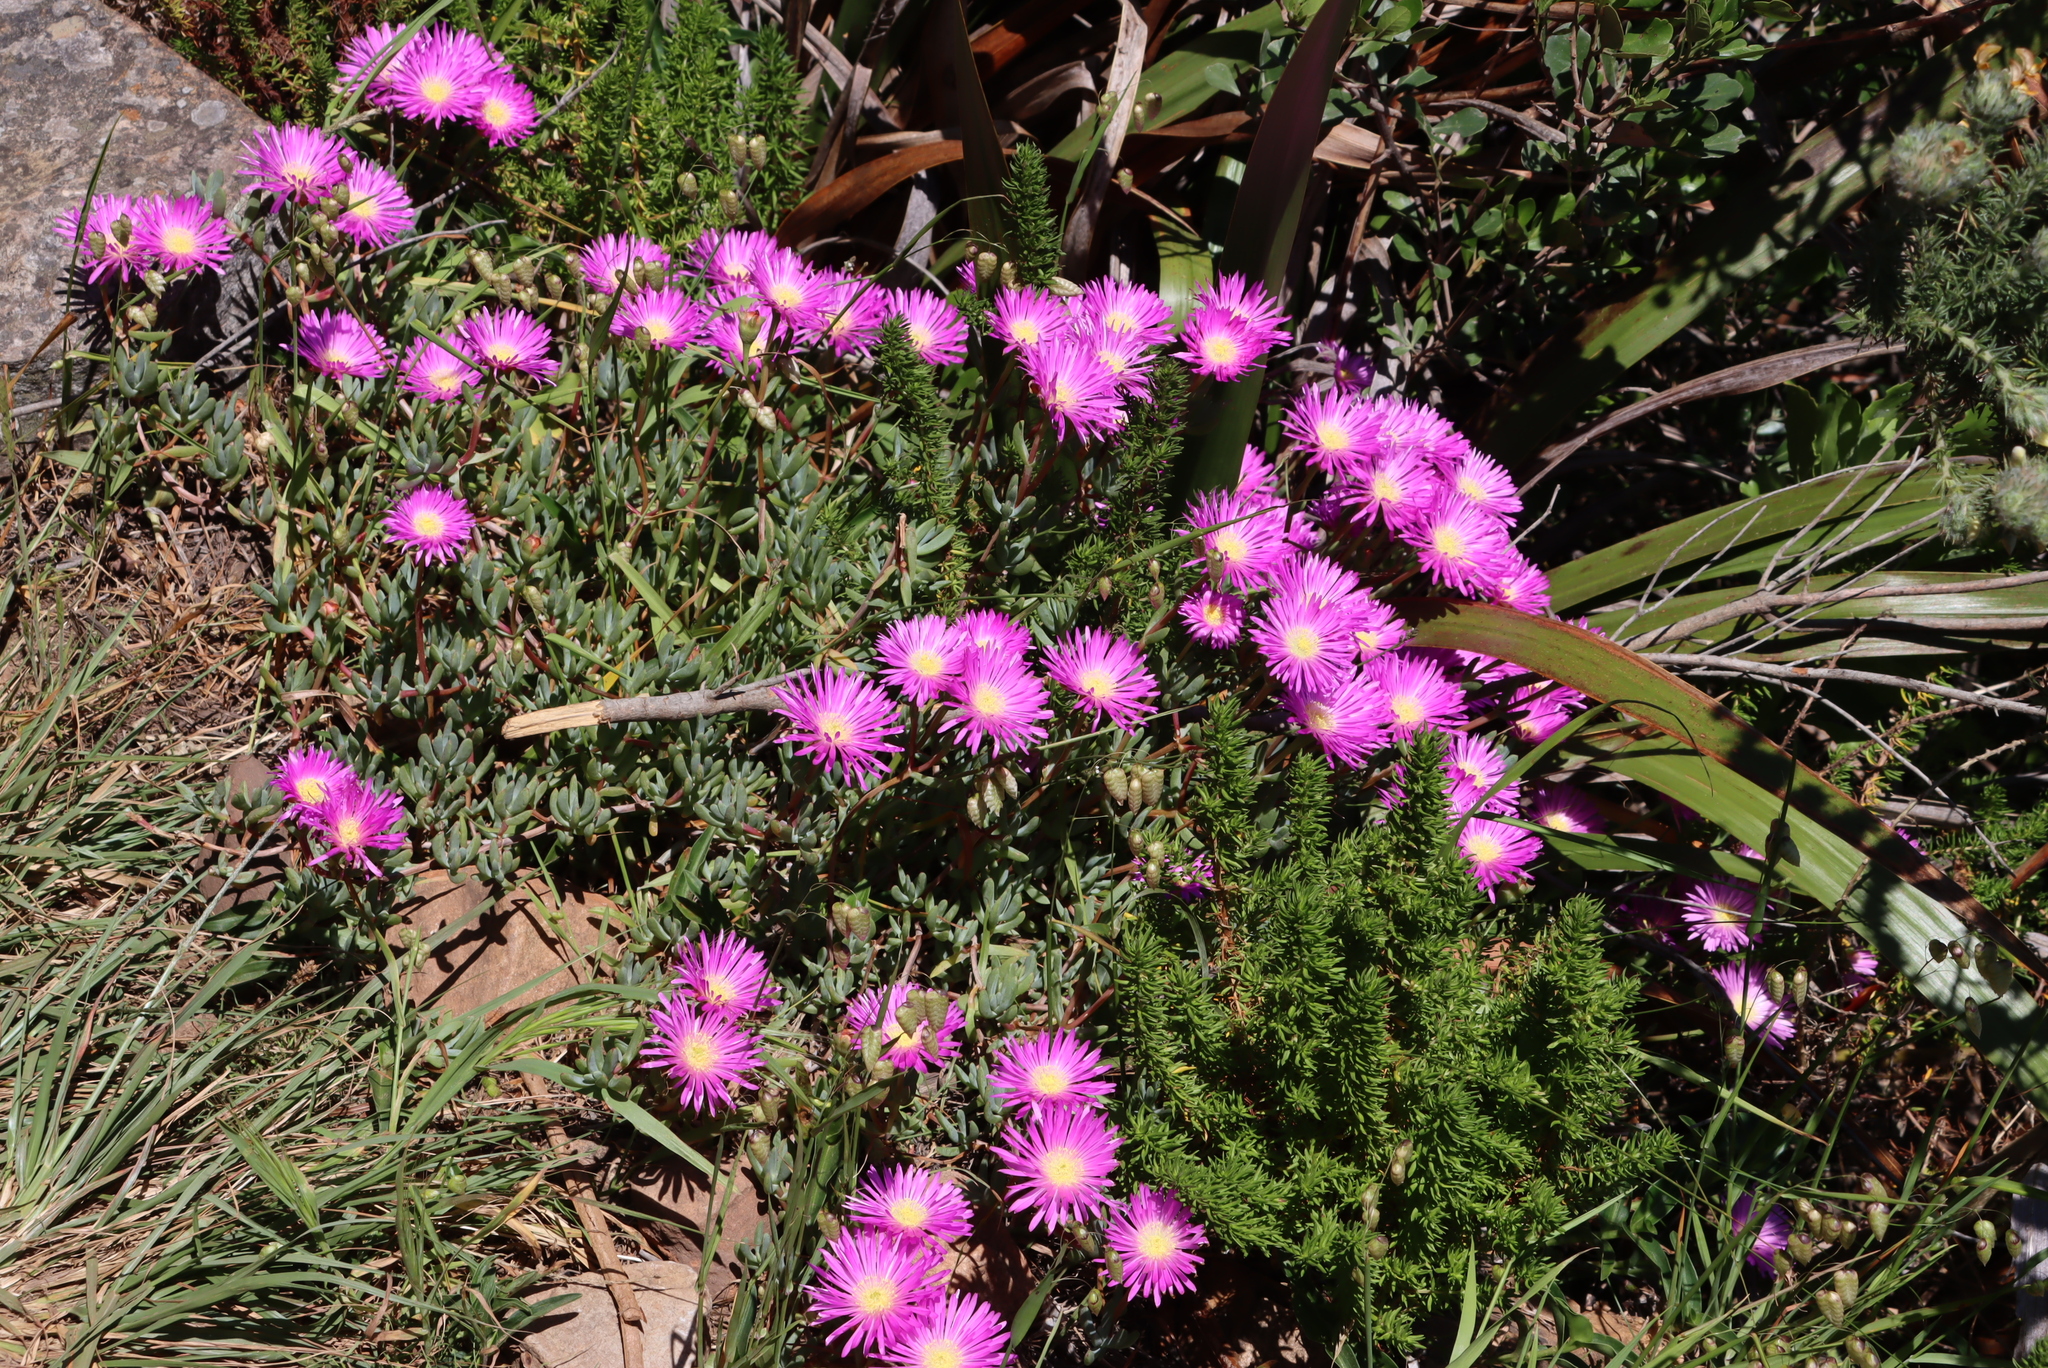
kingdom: Plantae
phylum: Tracheophyta
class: Magnoliopsida
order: Caryophyllales
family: Aizoaceae
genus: Oscularia
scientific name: Oscularia falciformis
